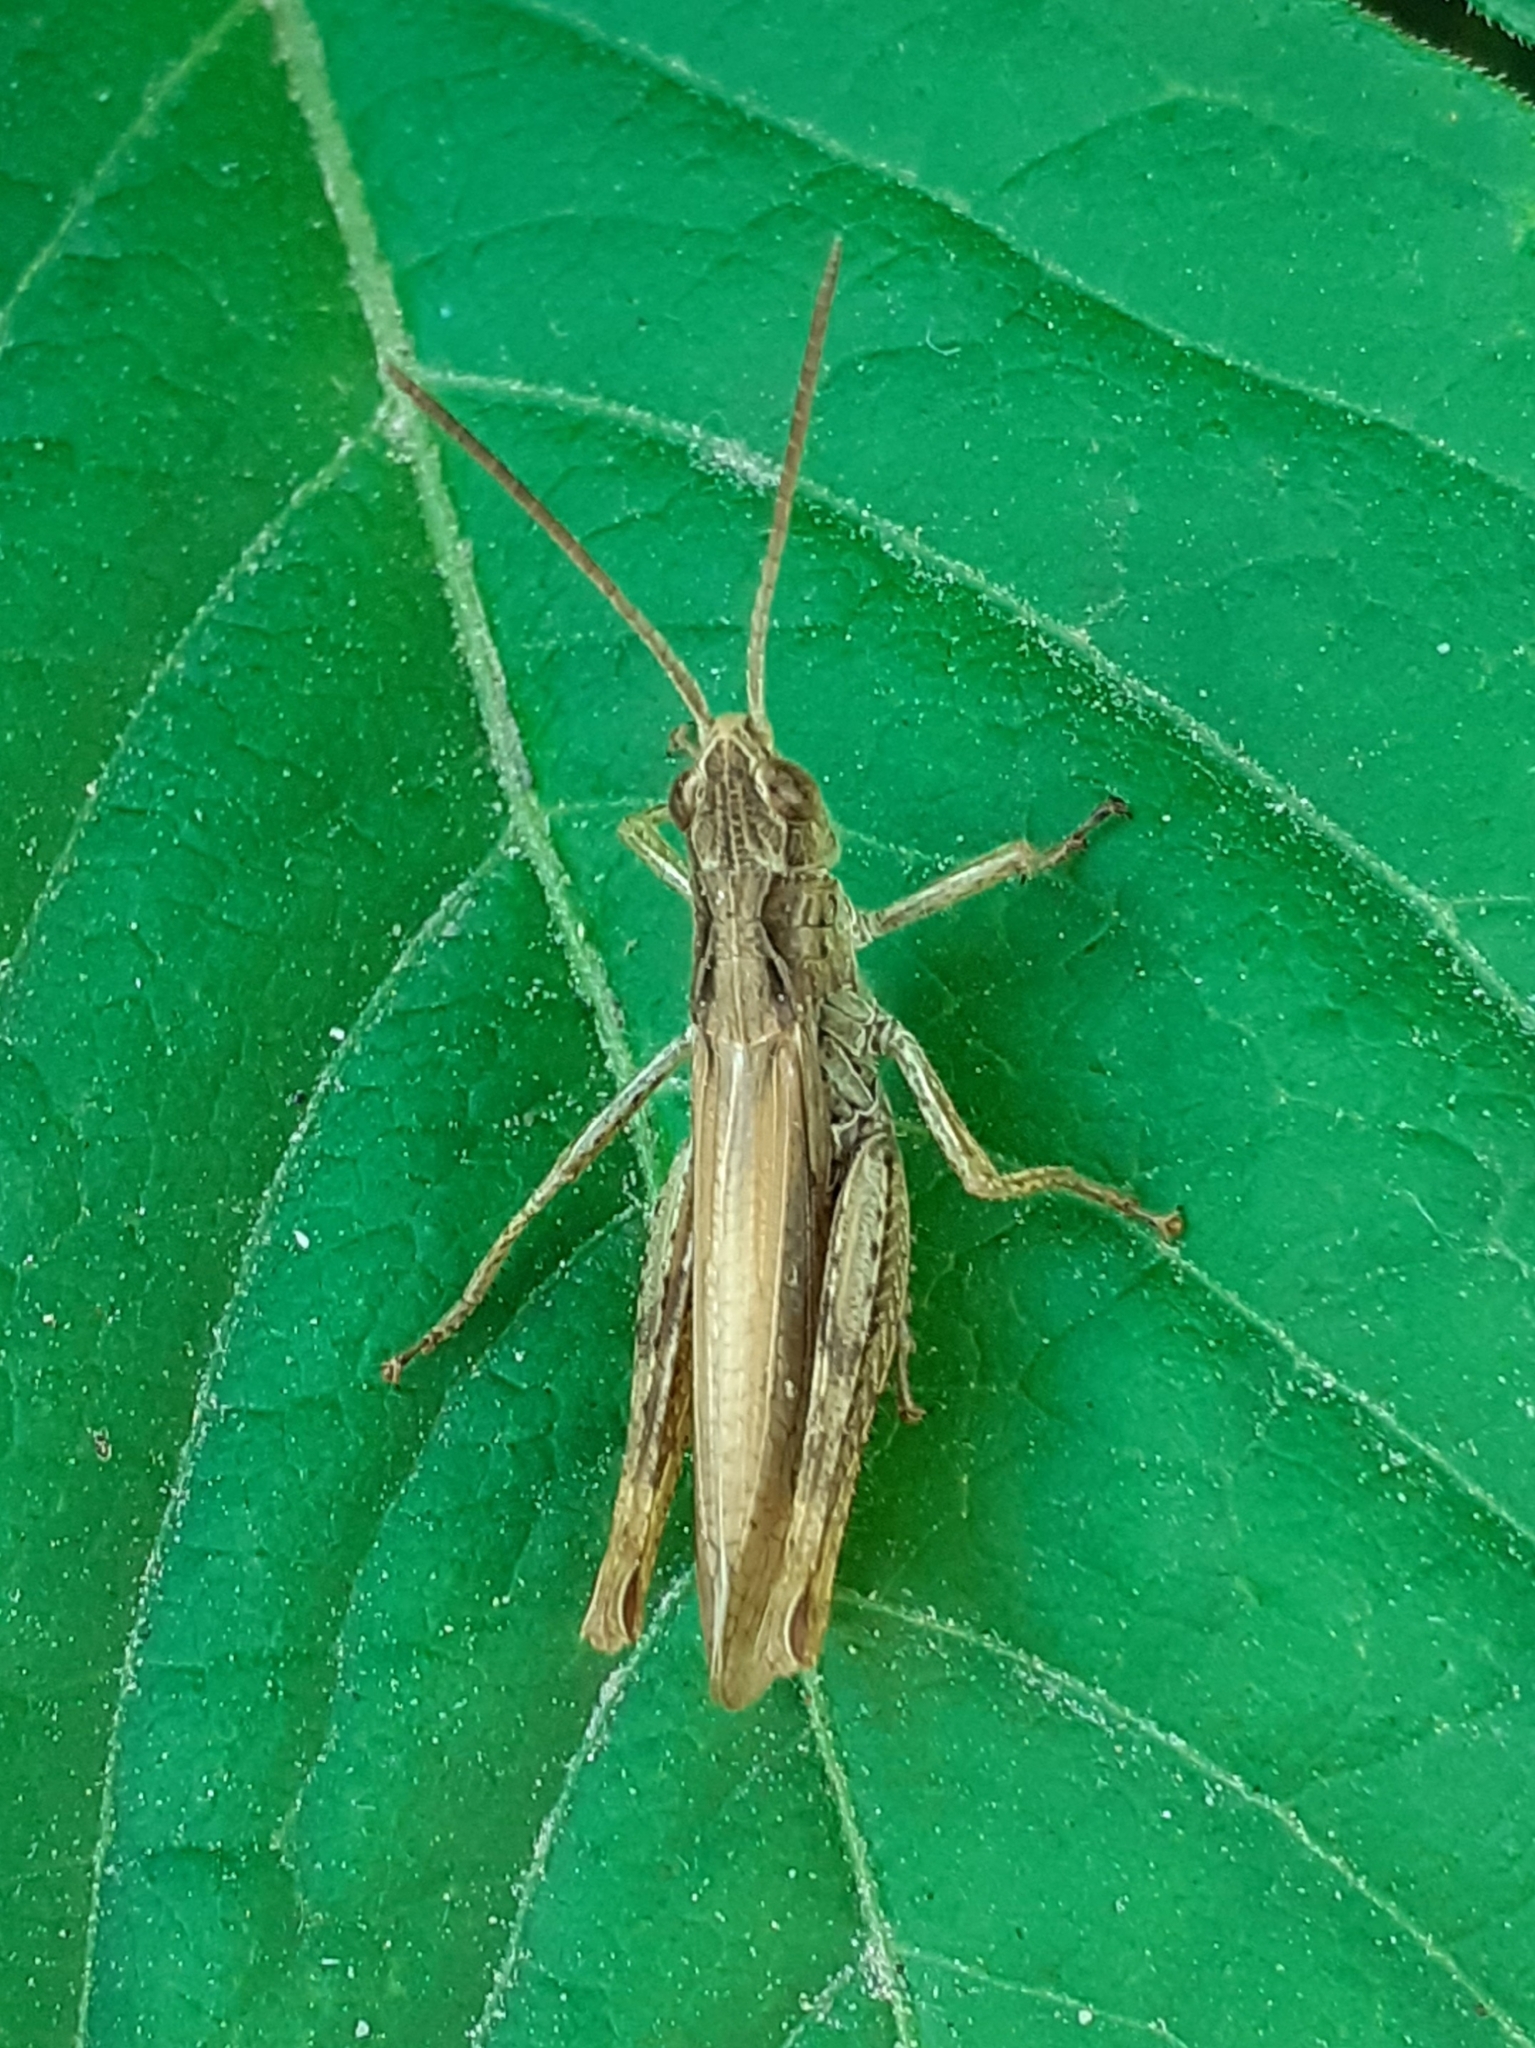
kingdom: Animalia
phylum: Arthropoda
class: Insecta
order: Orthoptera
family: Acrididae
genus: Chorthippus
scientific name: Chorthippus apricarius
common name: Upland field grasshopper
